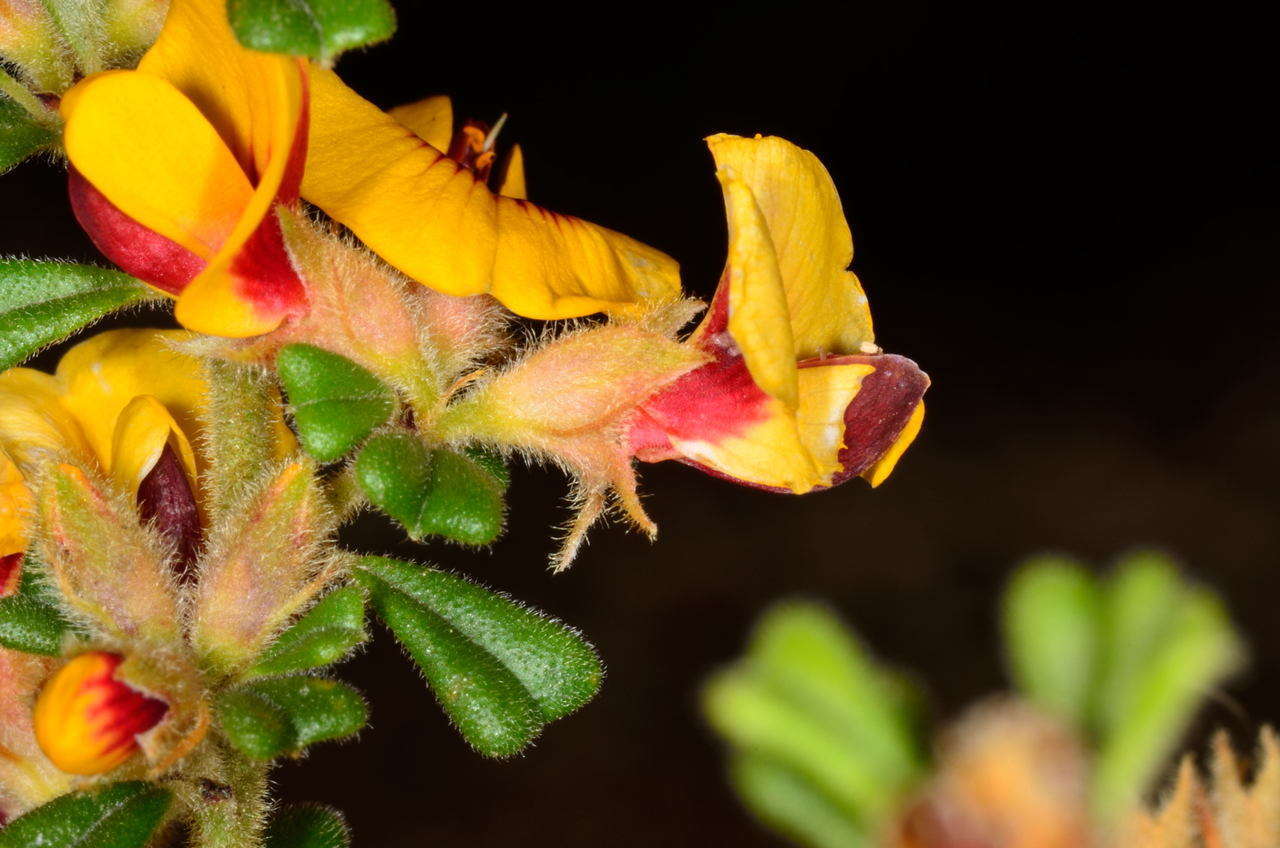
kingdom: Plantae
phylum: Tracheophyta
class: Magnoliopsida
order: Fabales
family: Fabaceae
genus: Pultenaea
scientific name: Pultenaea scabra
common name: Rough bush-pea
